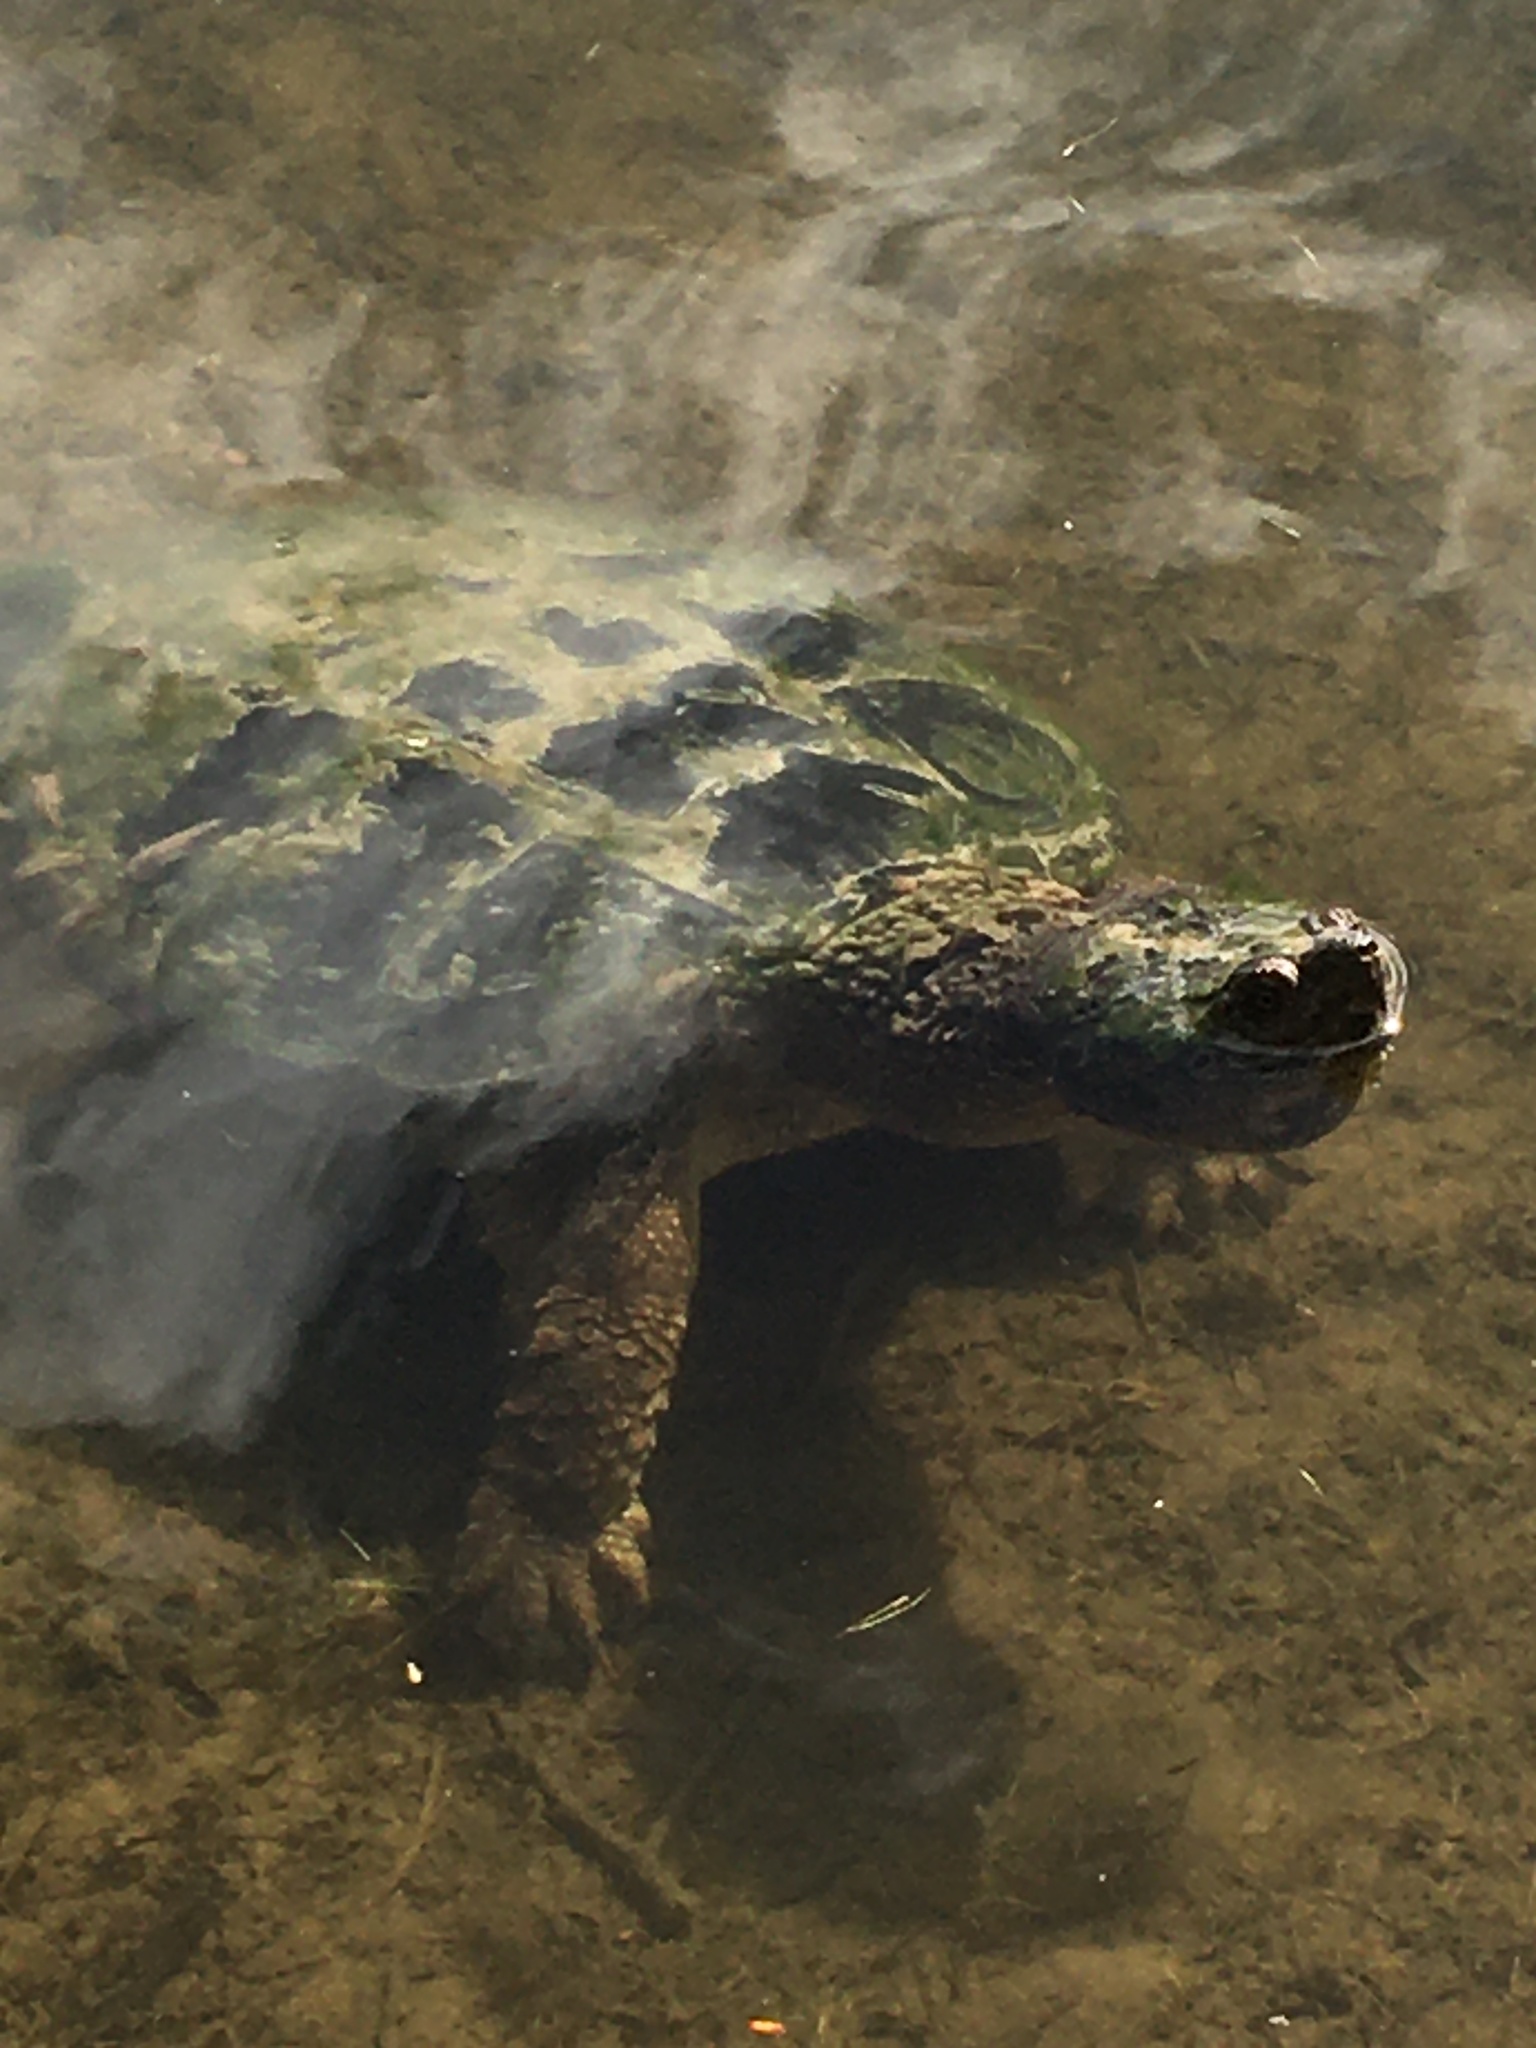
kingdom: Animalia
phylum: Chordata
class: Testudines
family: Chelydridae
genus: Chelydra
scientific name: Chelydra serpentina
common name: Common snapping turtle
